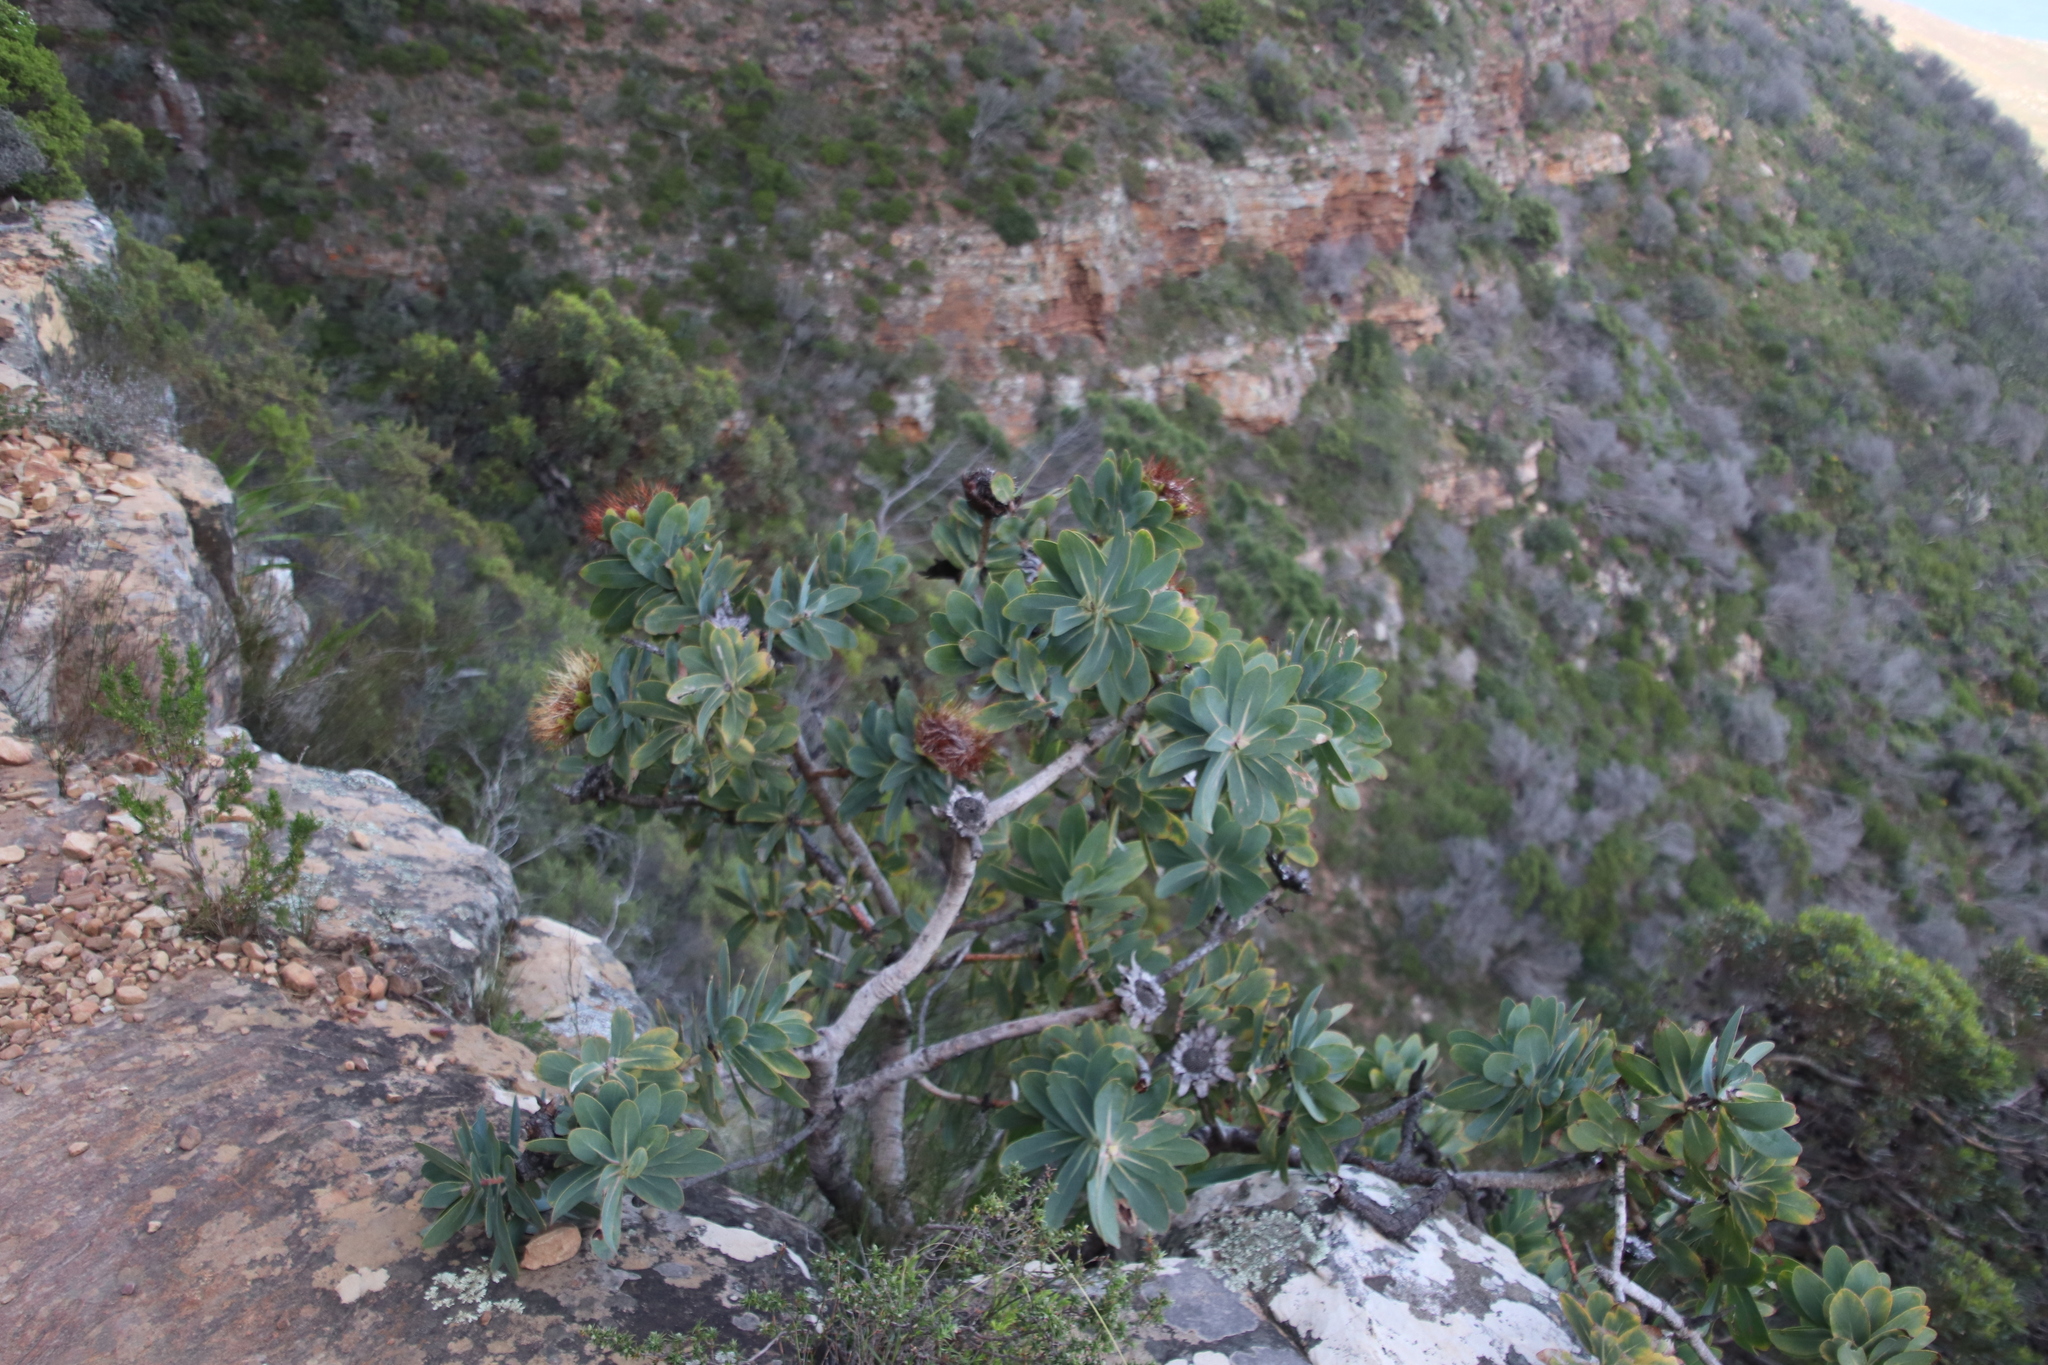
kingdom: Plantae
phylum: Tracheophyta
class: Magnoliopsida
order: Proteales
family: Proteaceae
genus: Protea
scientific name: Protea nitida
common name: Tree protea
